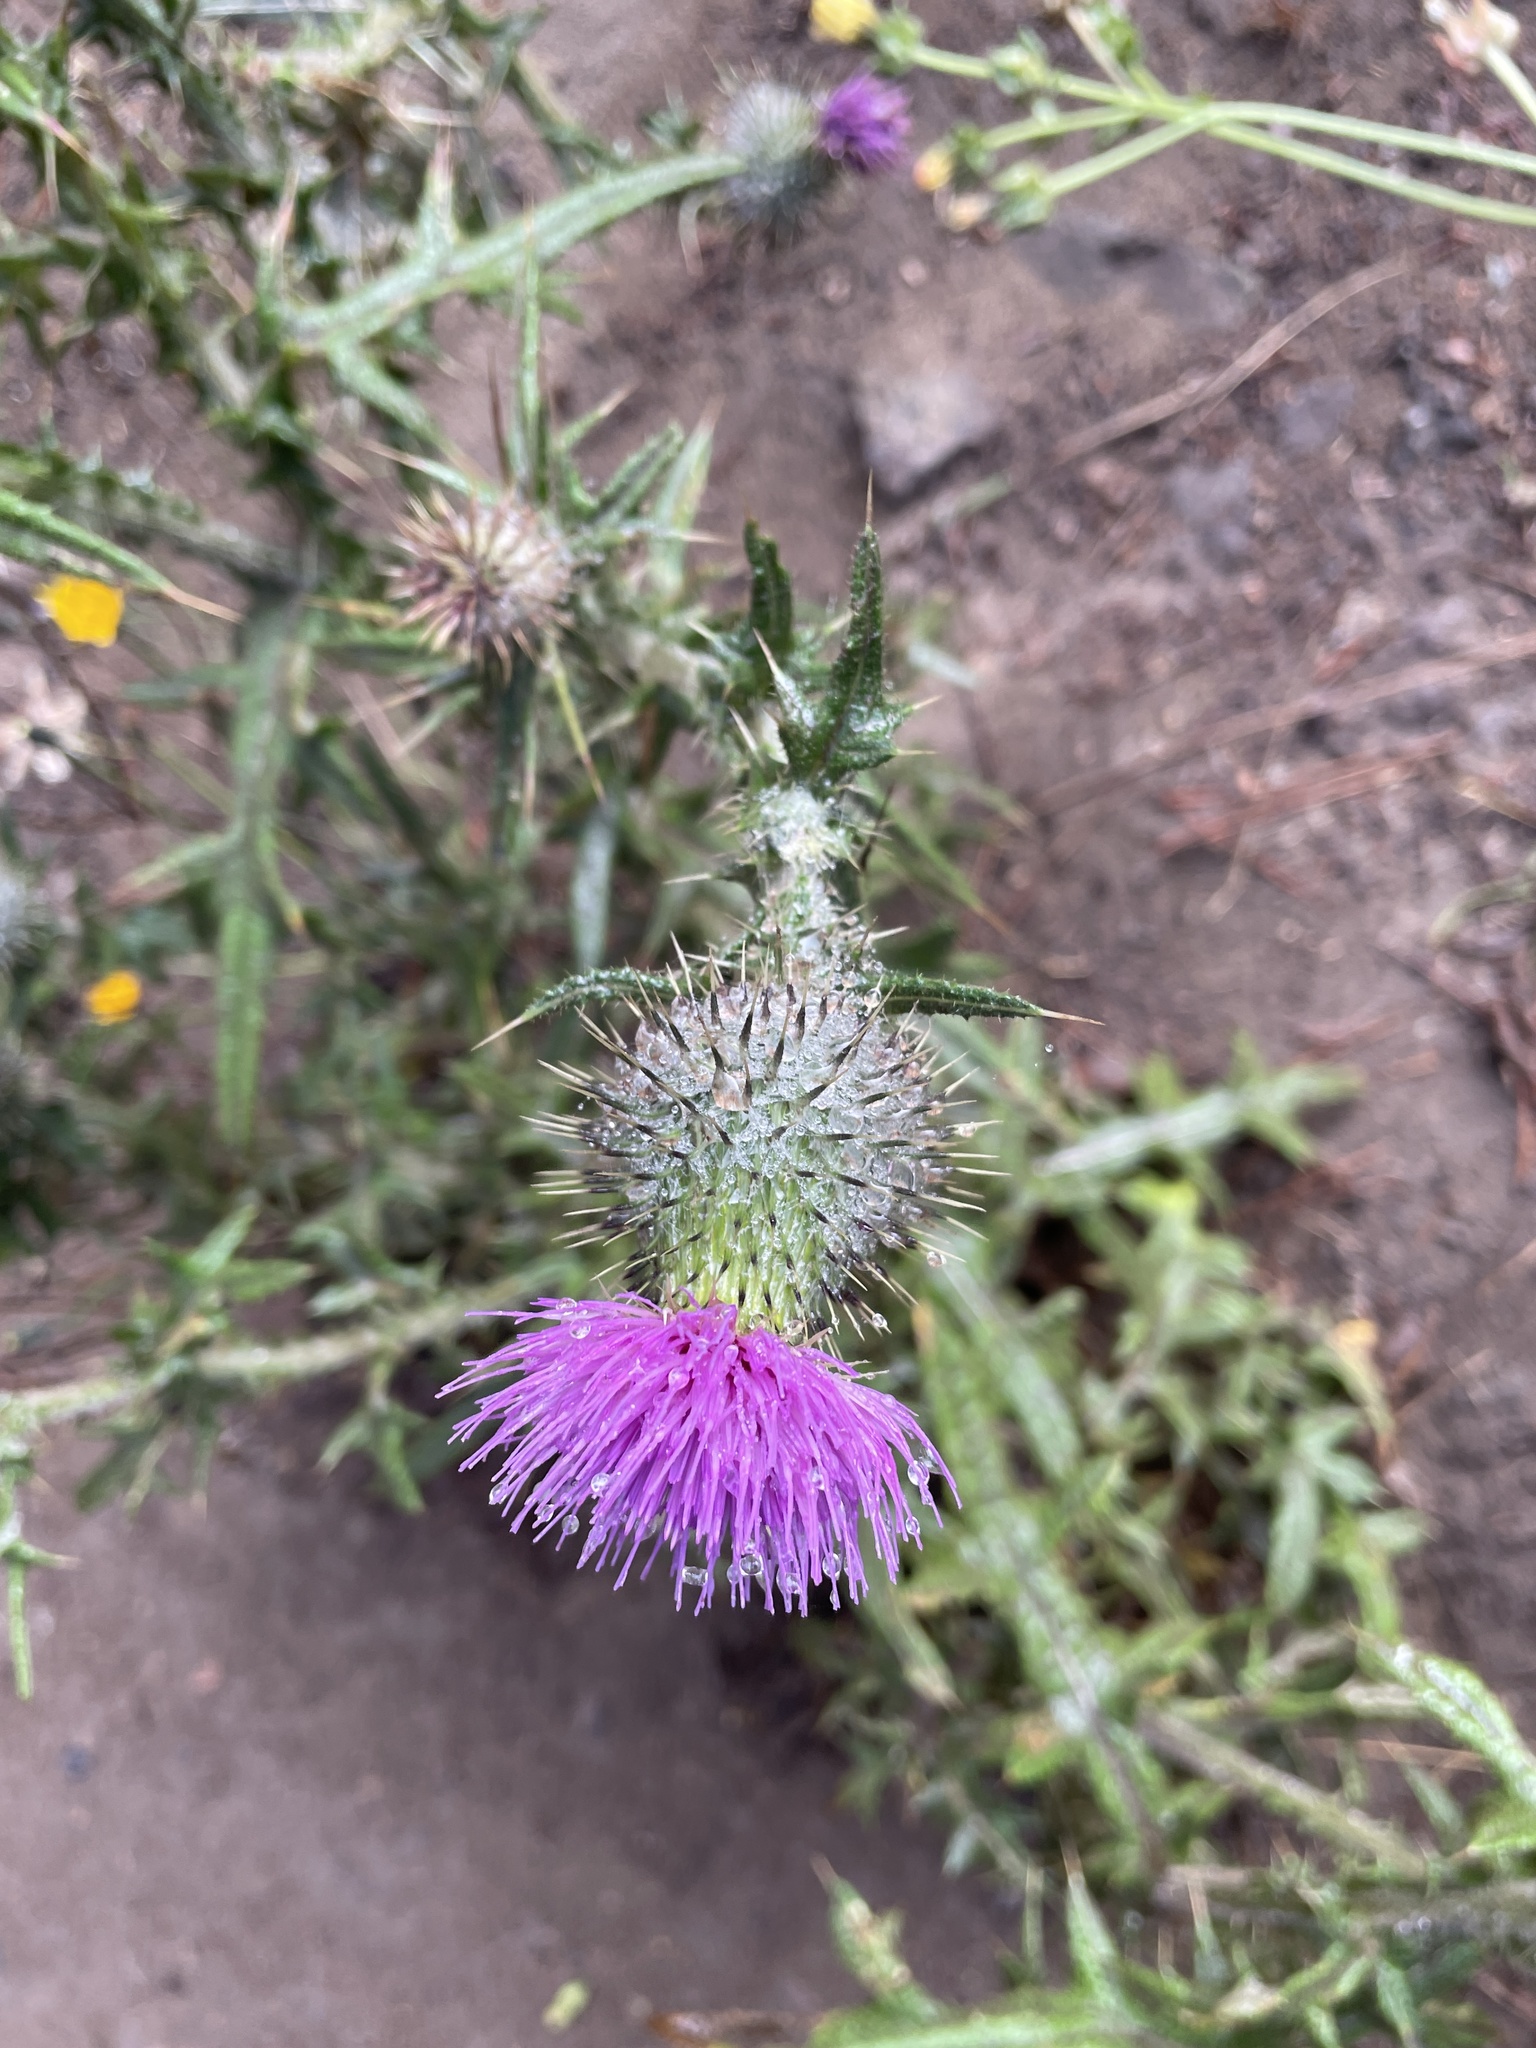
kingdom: Plantae
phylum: Tracheophyta
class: Magnoliopsida
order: Asterales
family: Asteraceae
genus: Cirsium
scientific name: Cirsium vulgare
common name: Bull thistle
